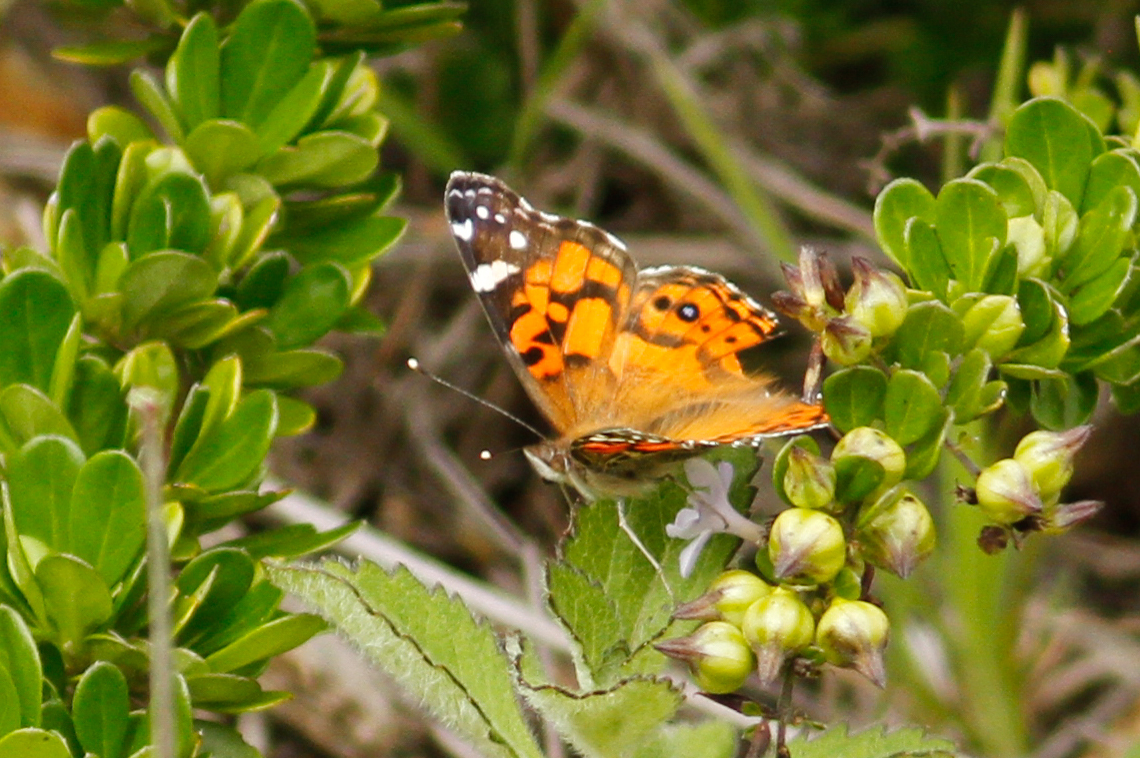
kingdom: Animalia
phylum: Arthropoda
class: Insecta
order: Lepidoptera
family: Nymphalidae
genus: Vanessa
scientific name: Vanessa altissima
